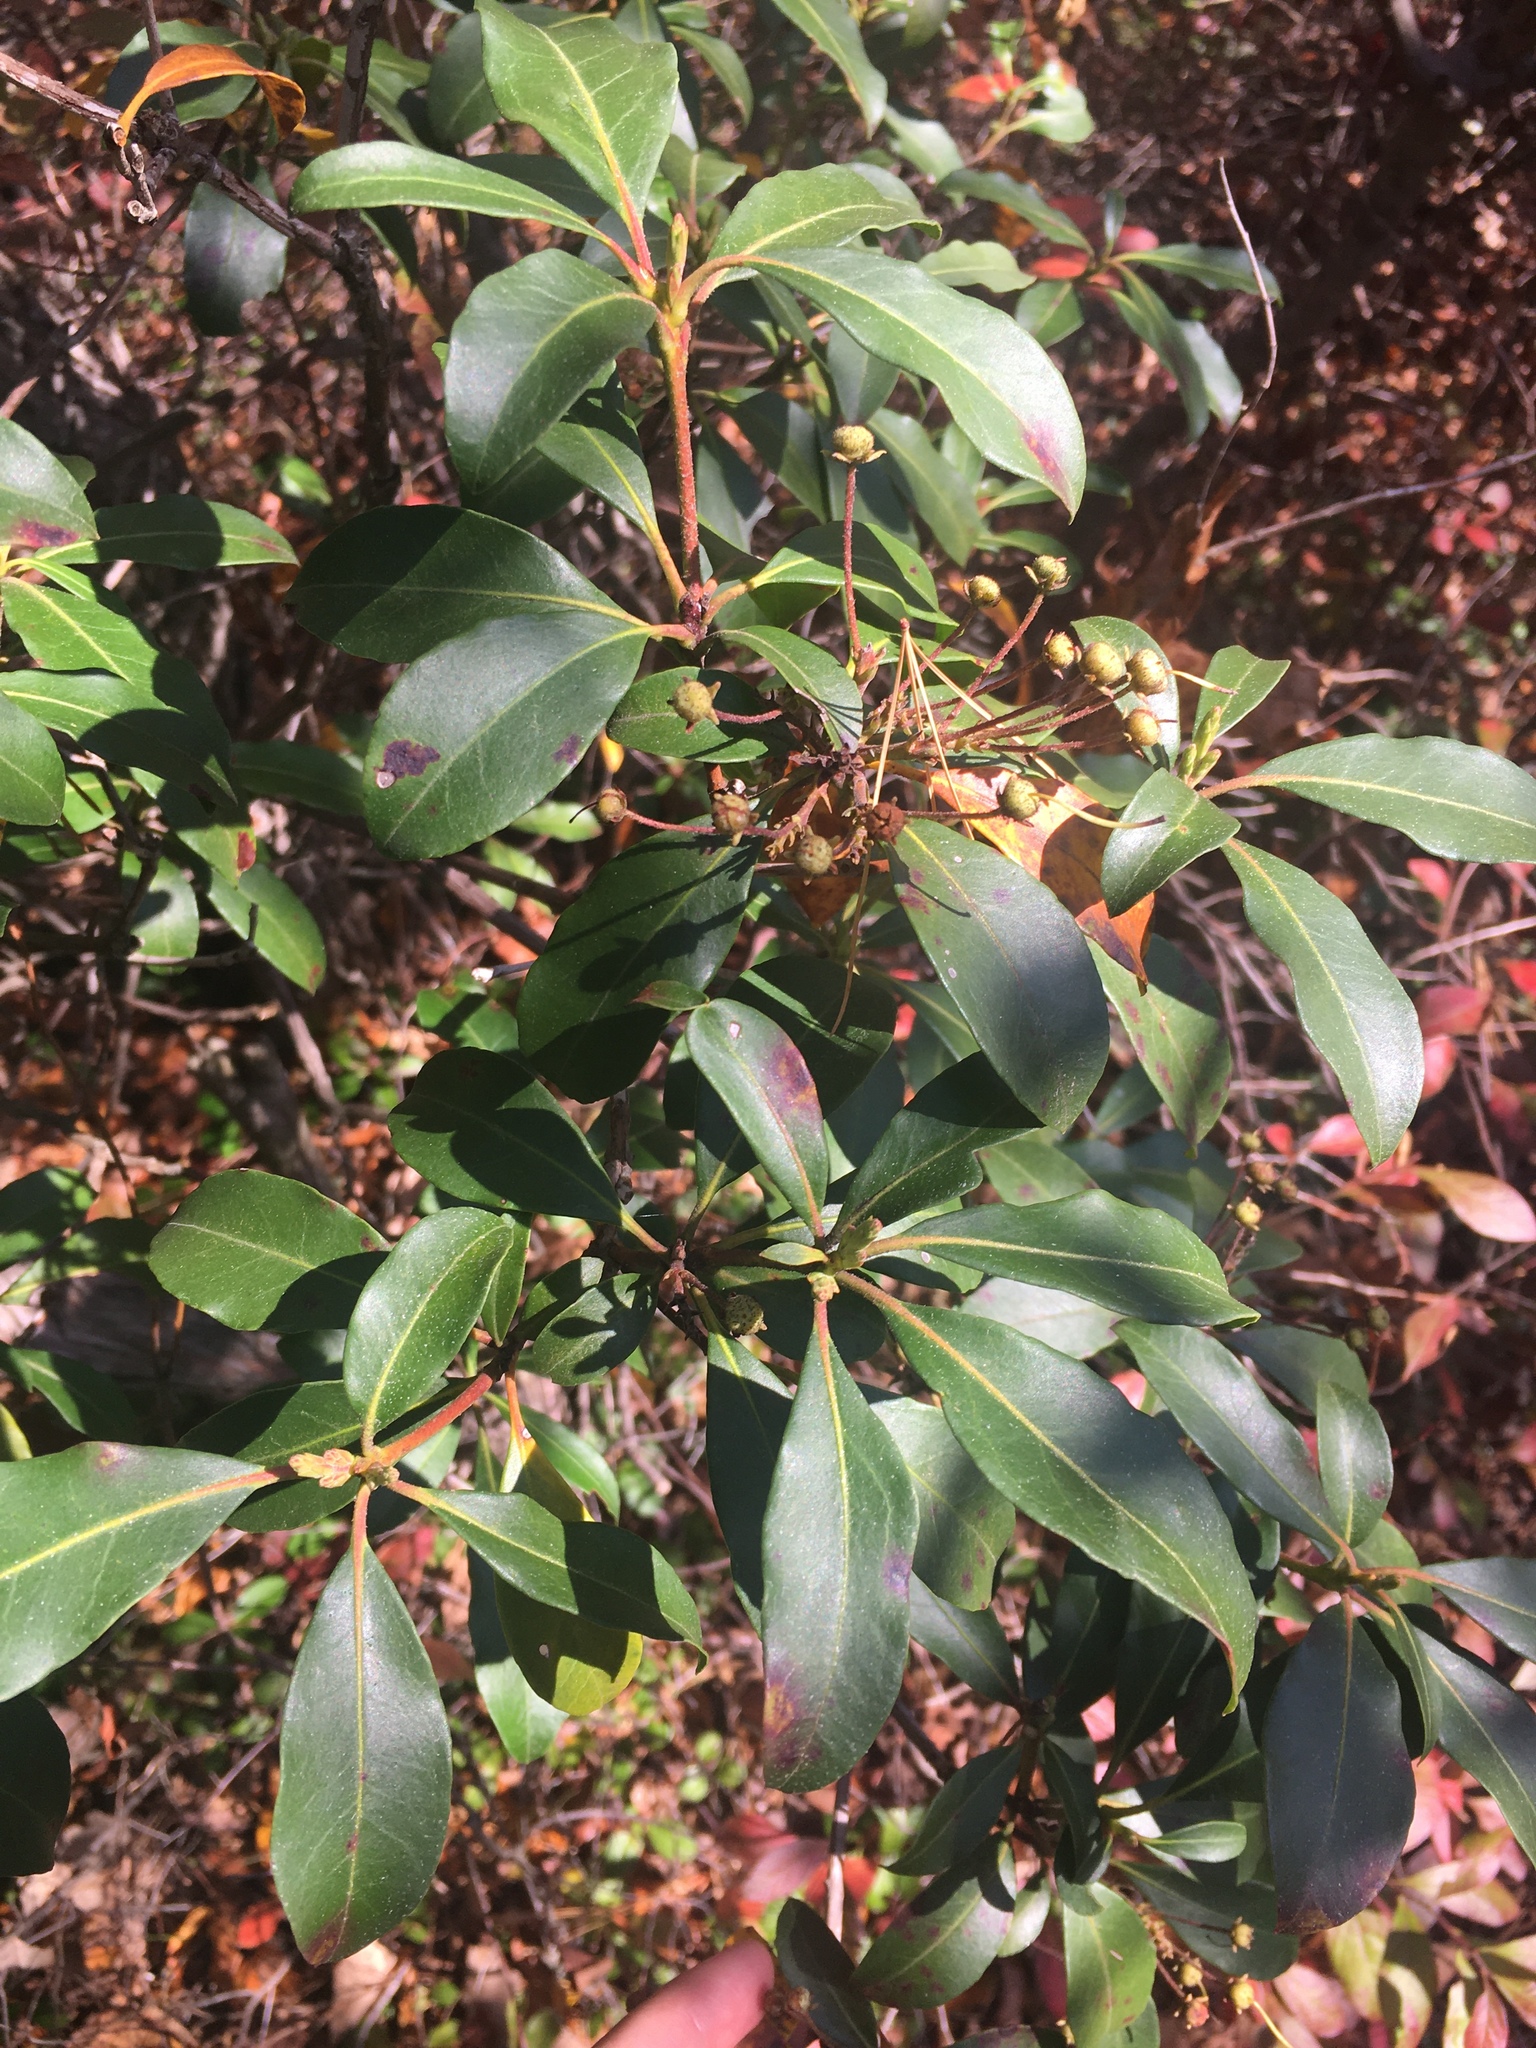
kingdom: Plantae
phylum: Tracheophyta
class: Magnoliopsida
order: Ericales
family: Ericaceae
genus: Kalmia
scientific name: Kalmia latifolia
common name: Mountain-laurel
